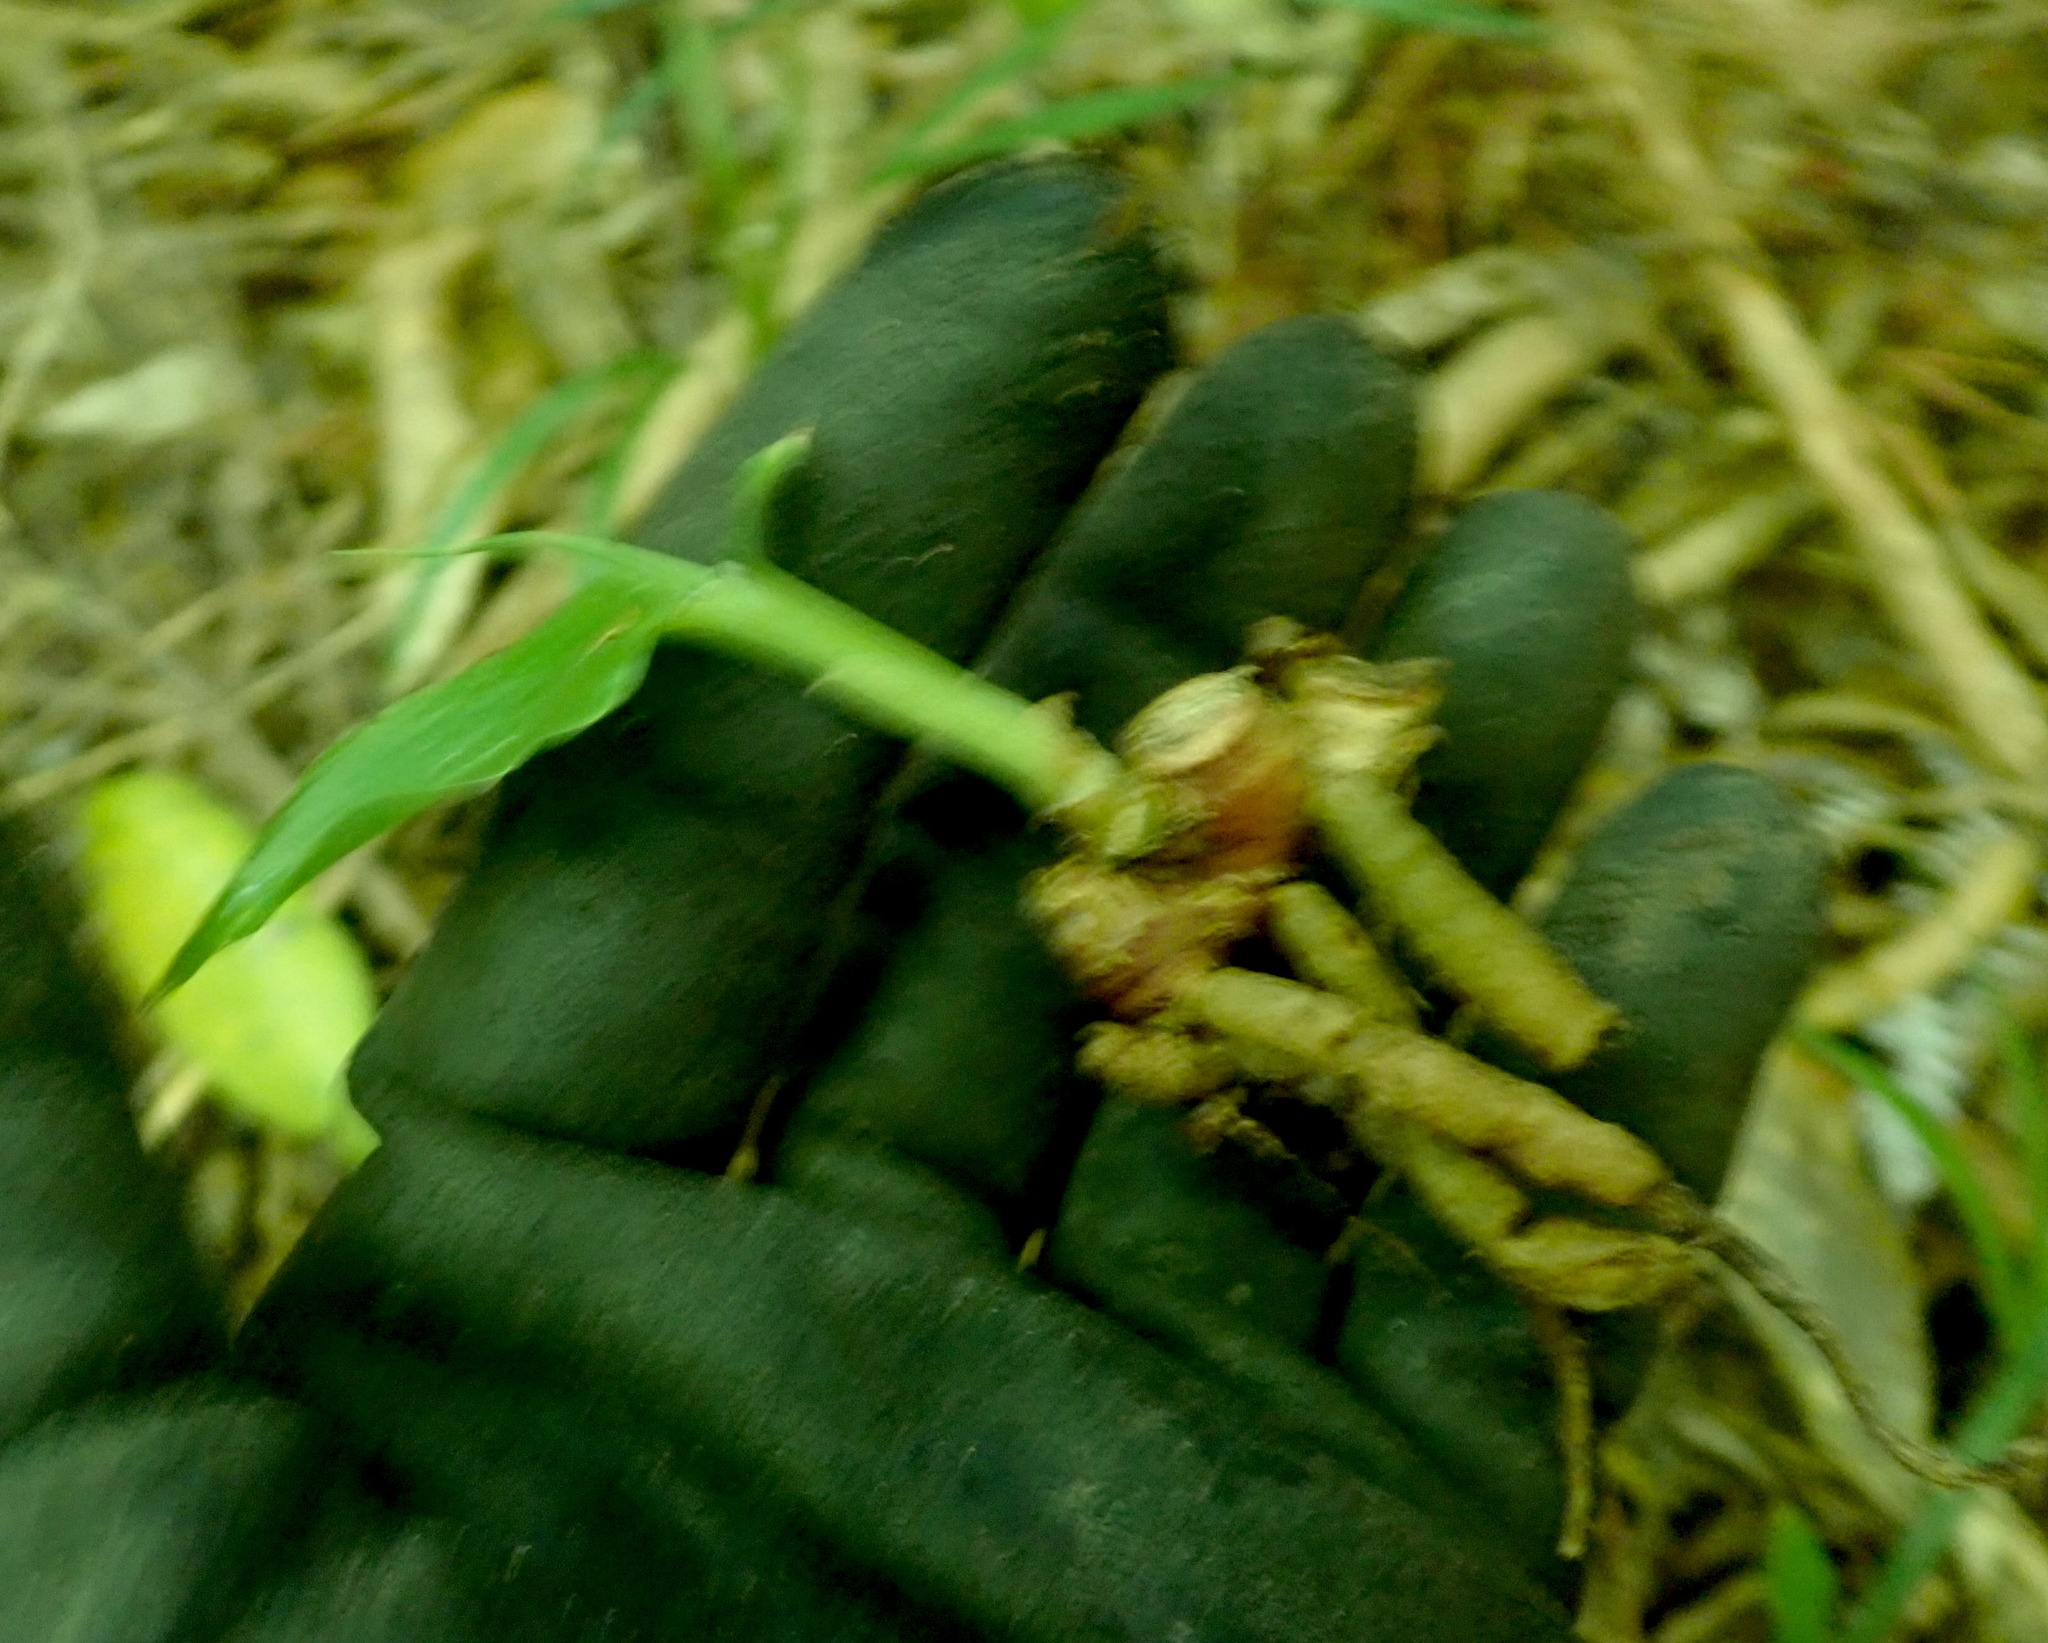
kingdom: Plantae
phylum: Tracheophyta
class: Liliopsida
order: Zingiberales
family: Zingiberaceae
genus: Hedychium
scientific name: Hedychium gardnerianum
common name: Himalayan ginger
